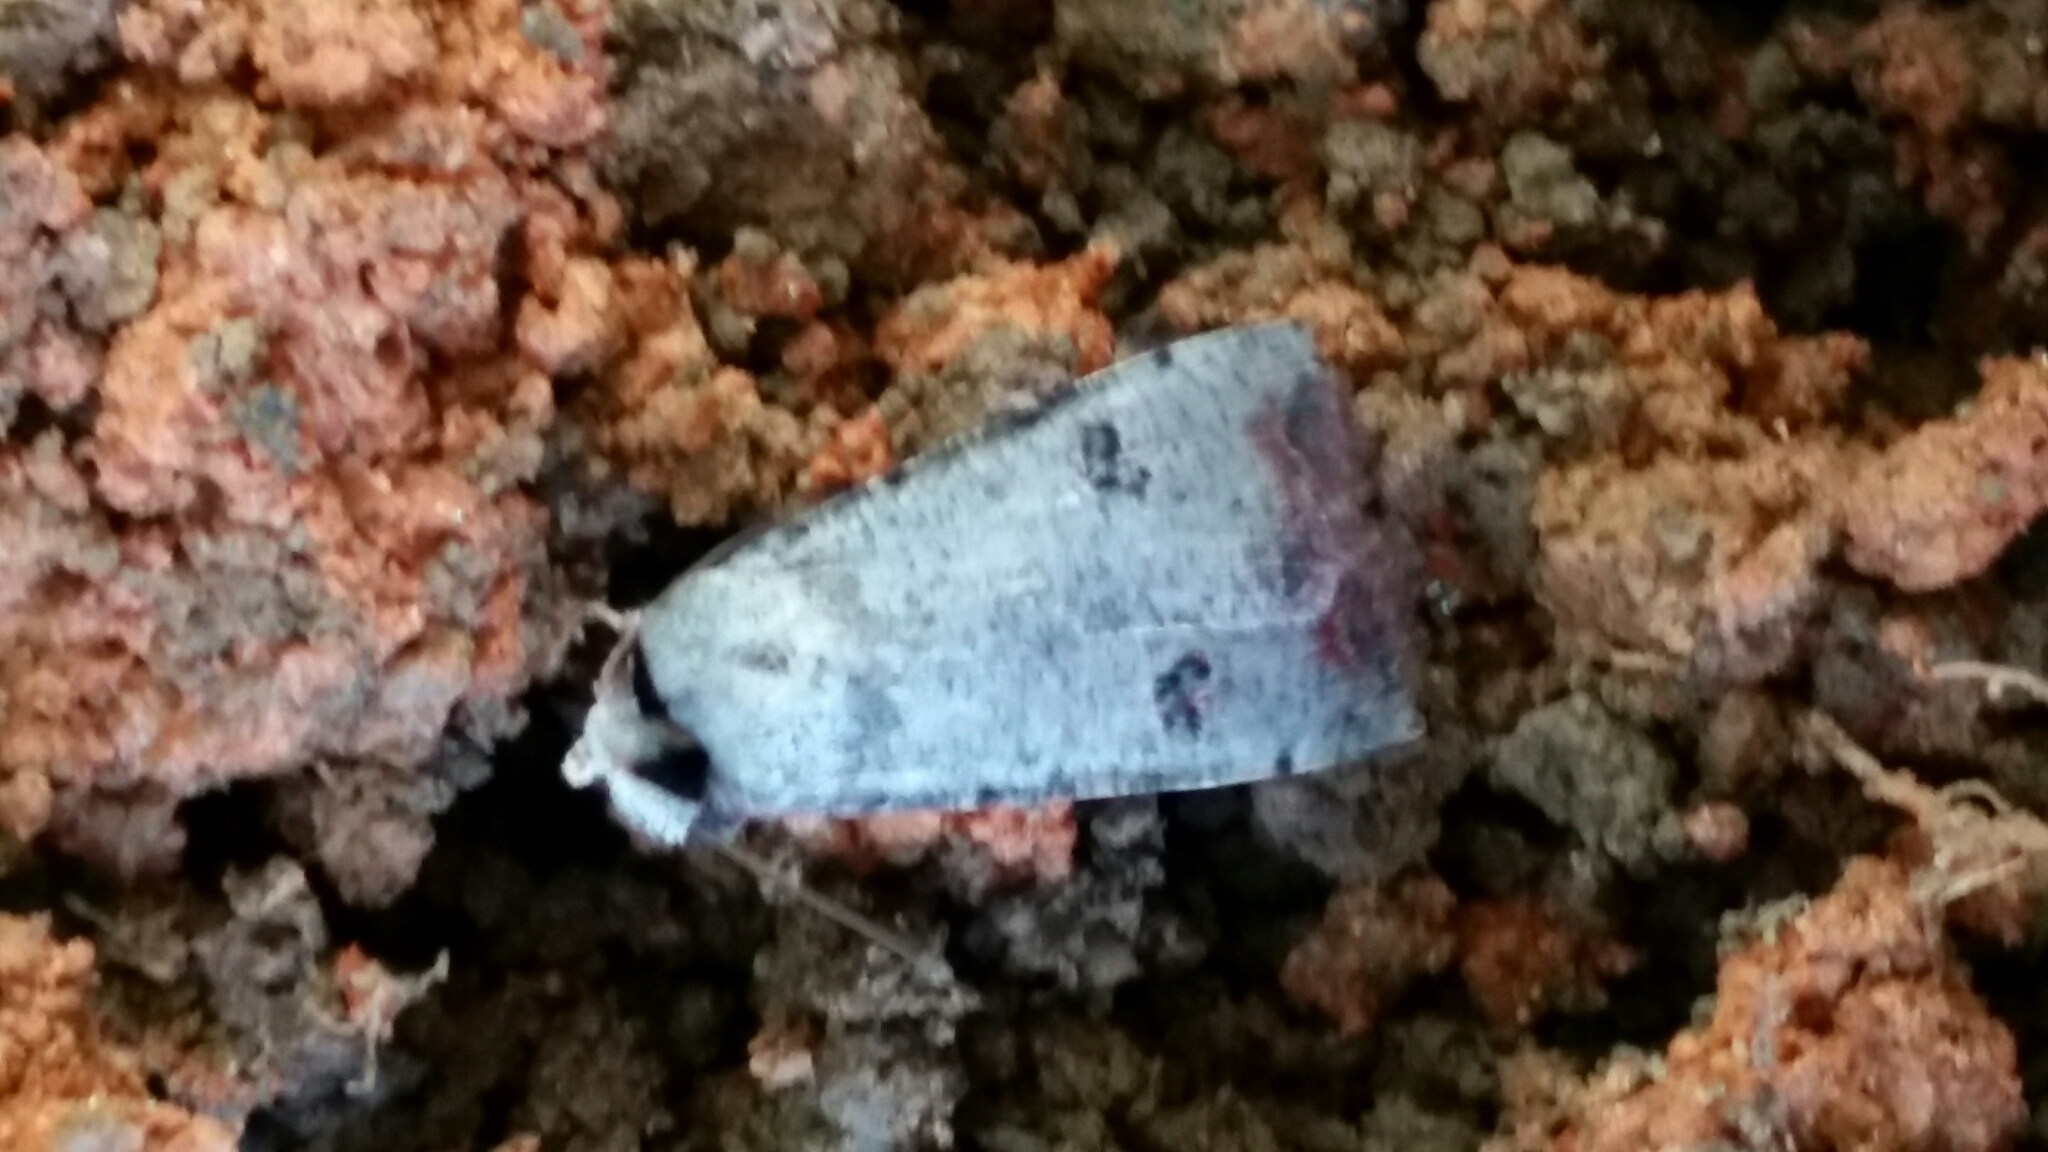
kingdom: Animalia
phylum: Arthropoda
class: Insecta
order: Lepidoptera
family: Noctuidae
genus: Anicla
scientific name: Anicla infecta
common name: Green cutworm
